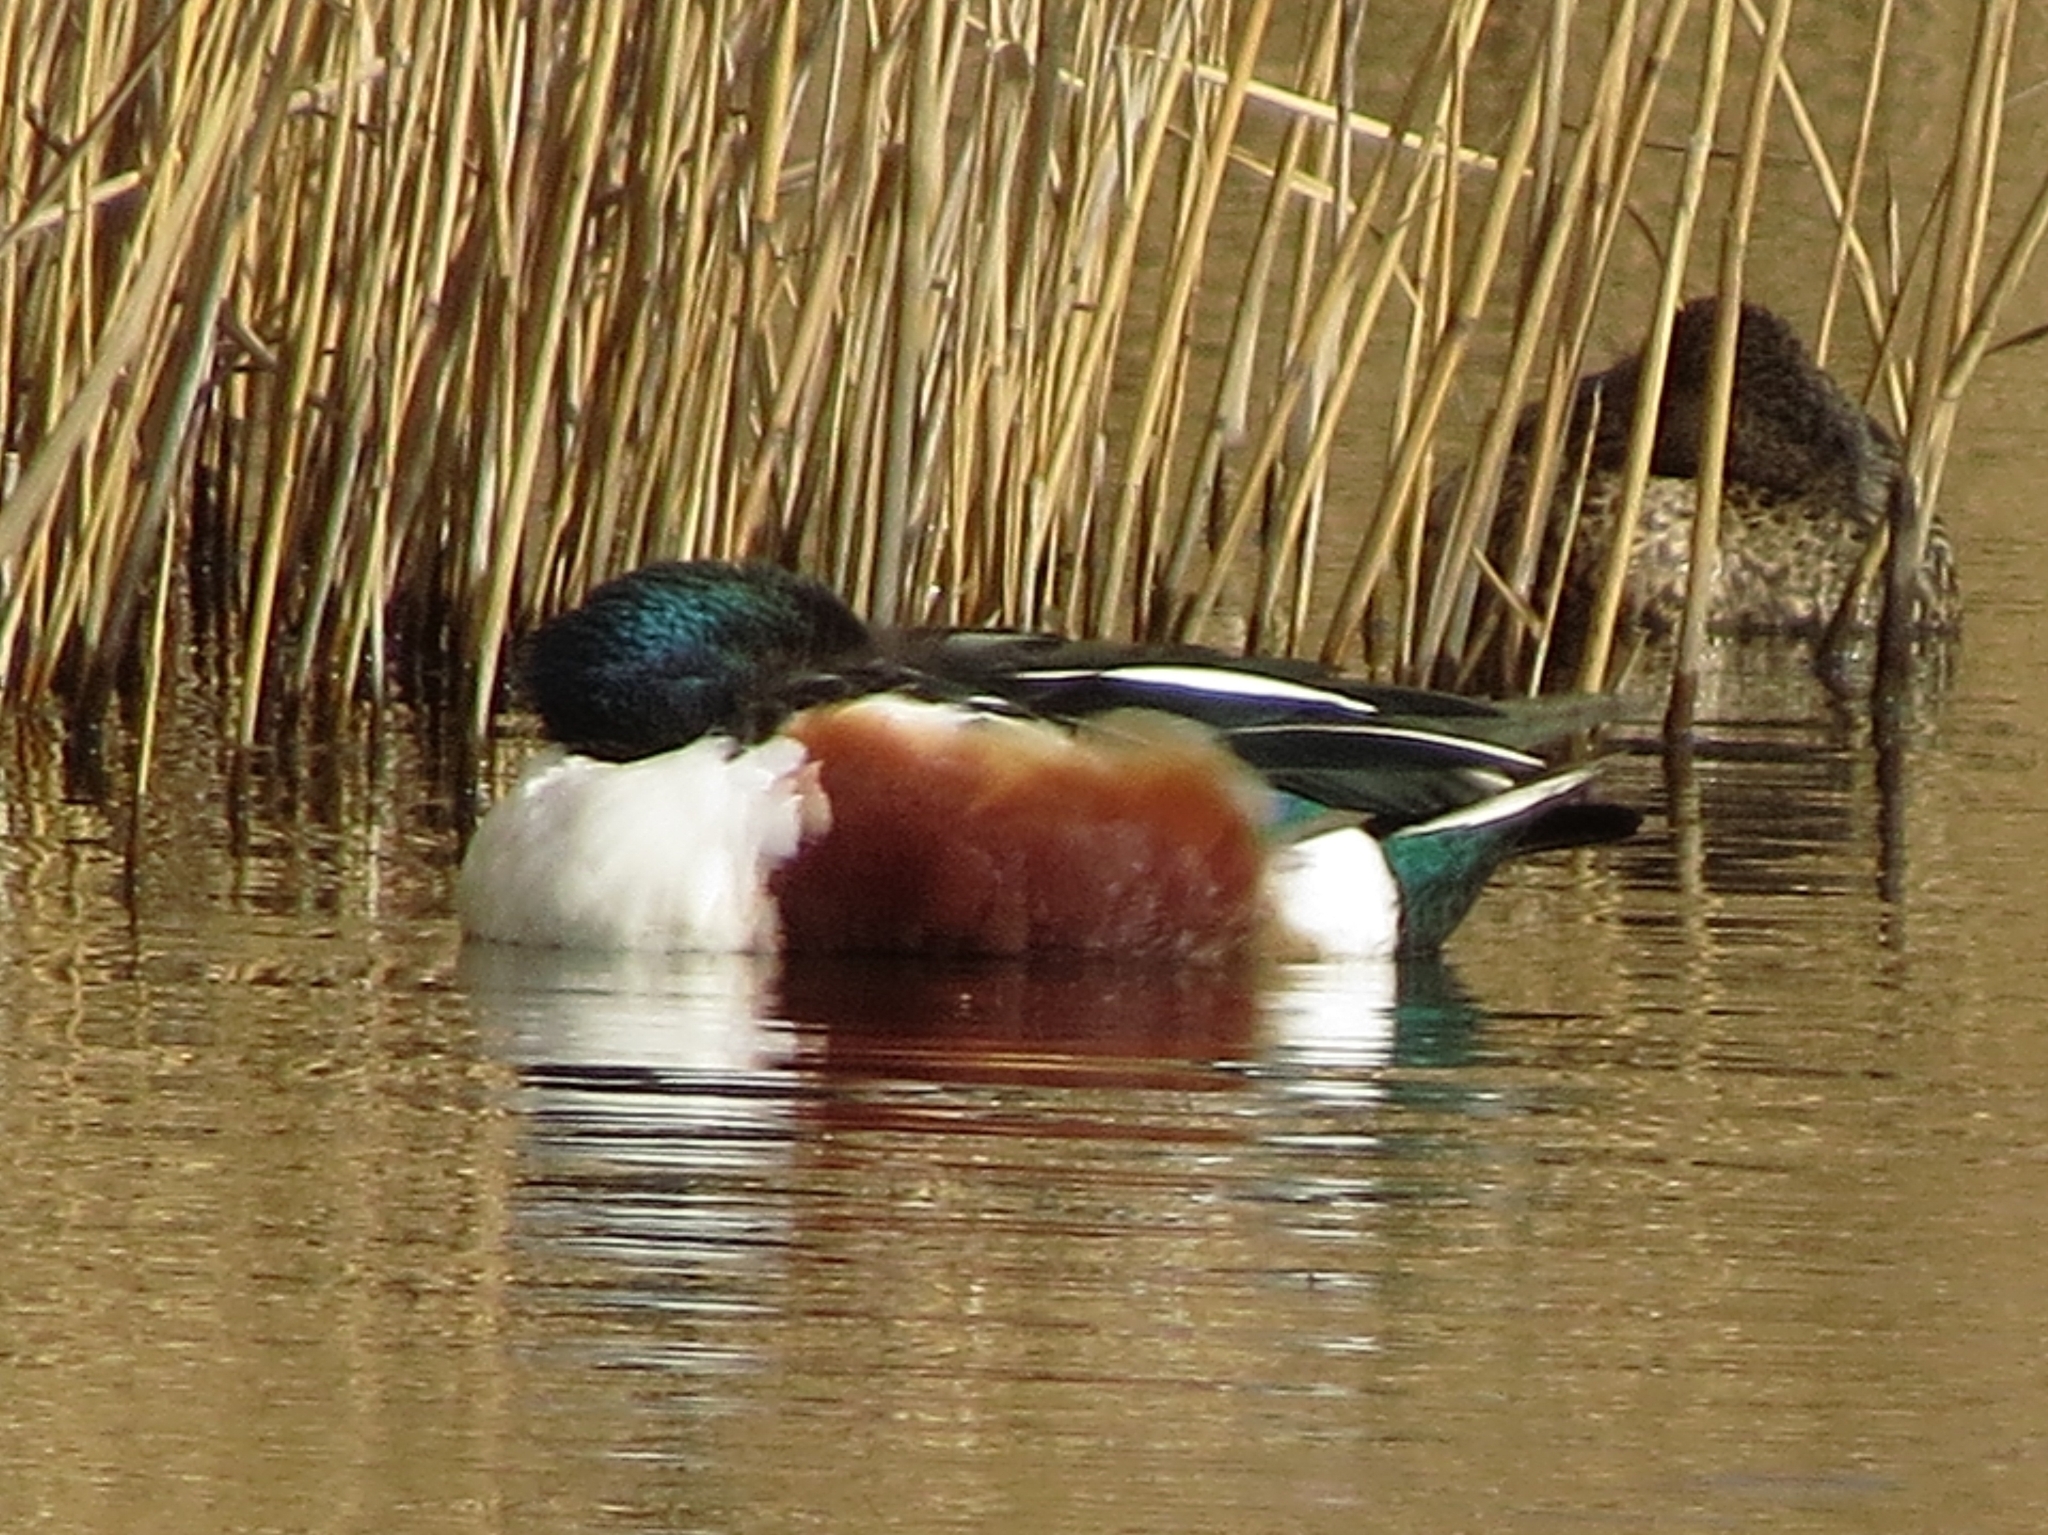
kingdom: Animalia
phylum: Chordata
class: Aves
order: Anseriformes
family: Anatidae
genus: Spatula
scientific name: Spatula clypeata
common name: Northern shoveler
